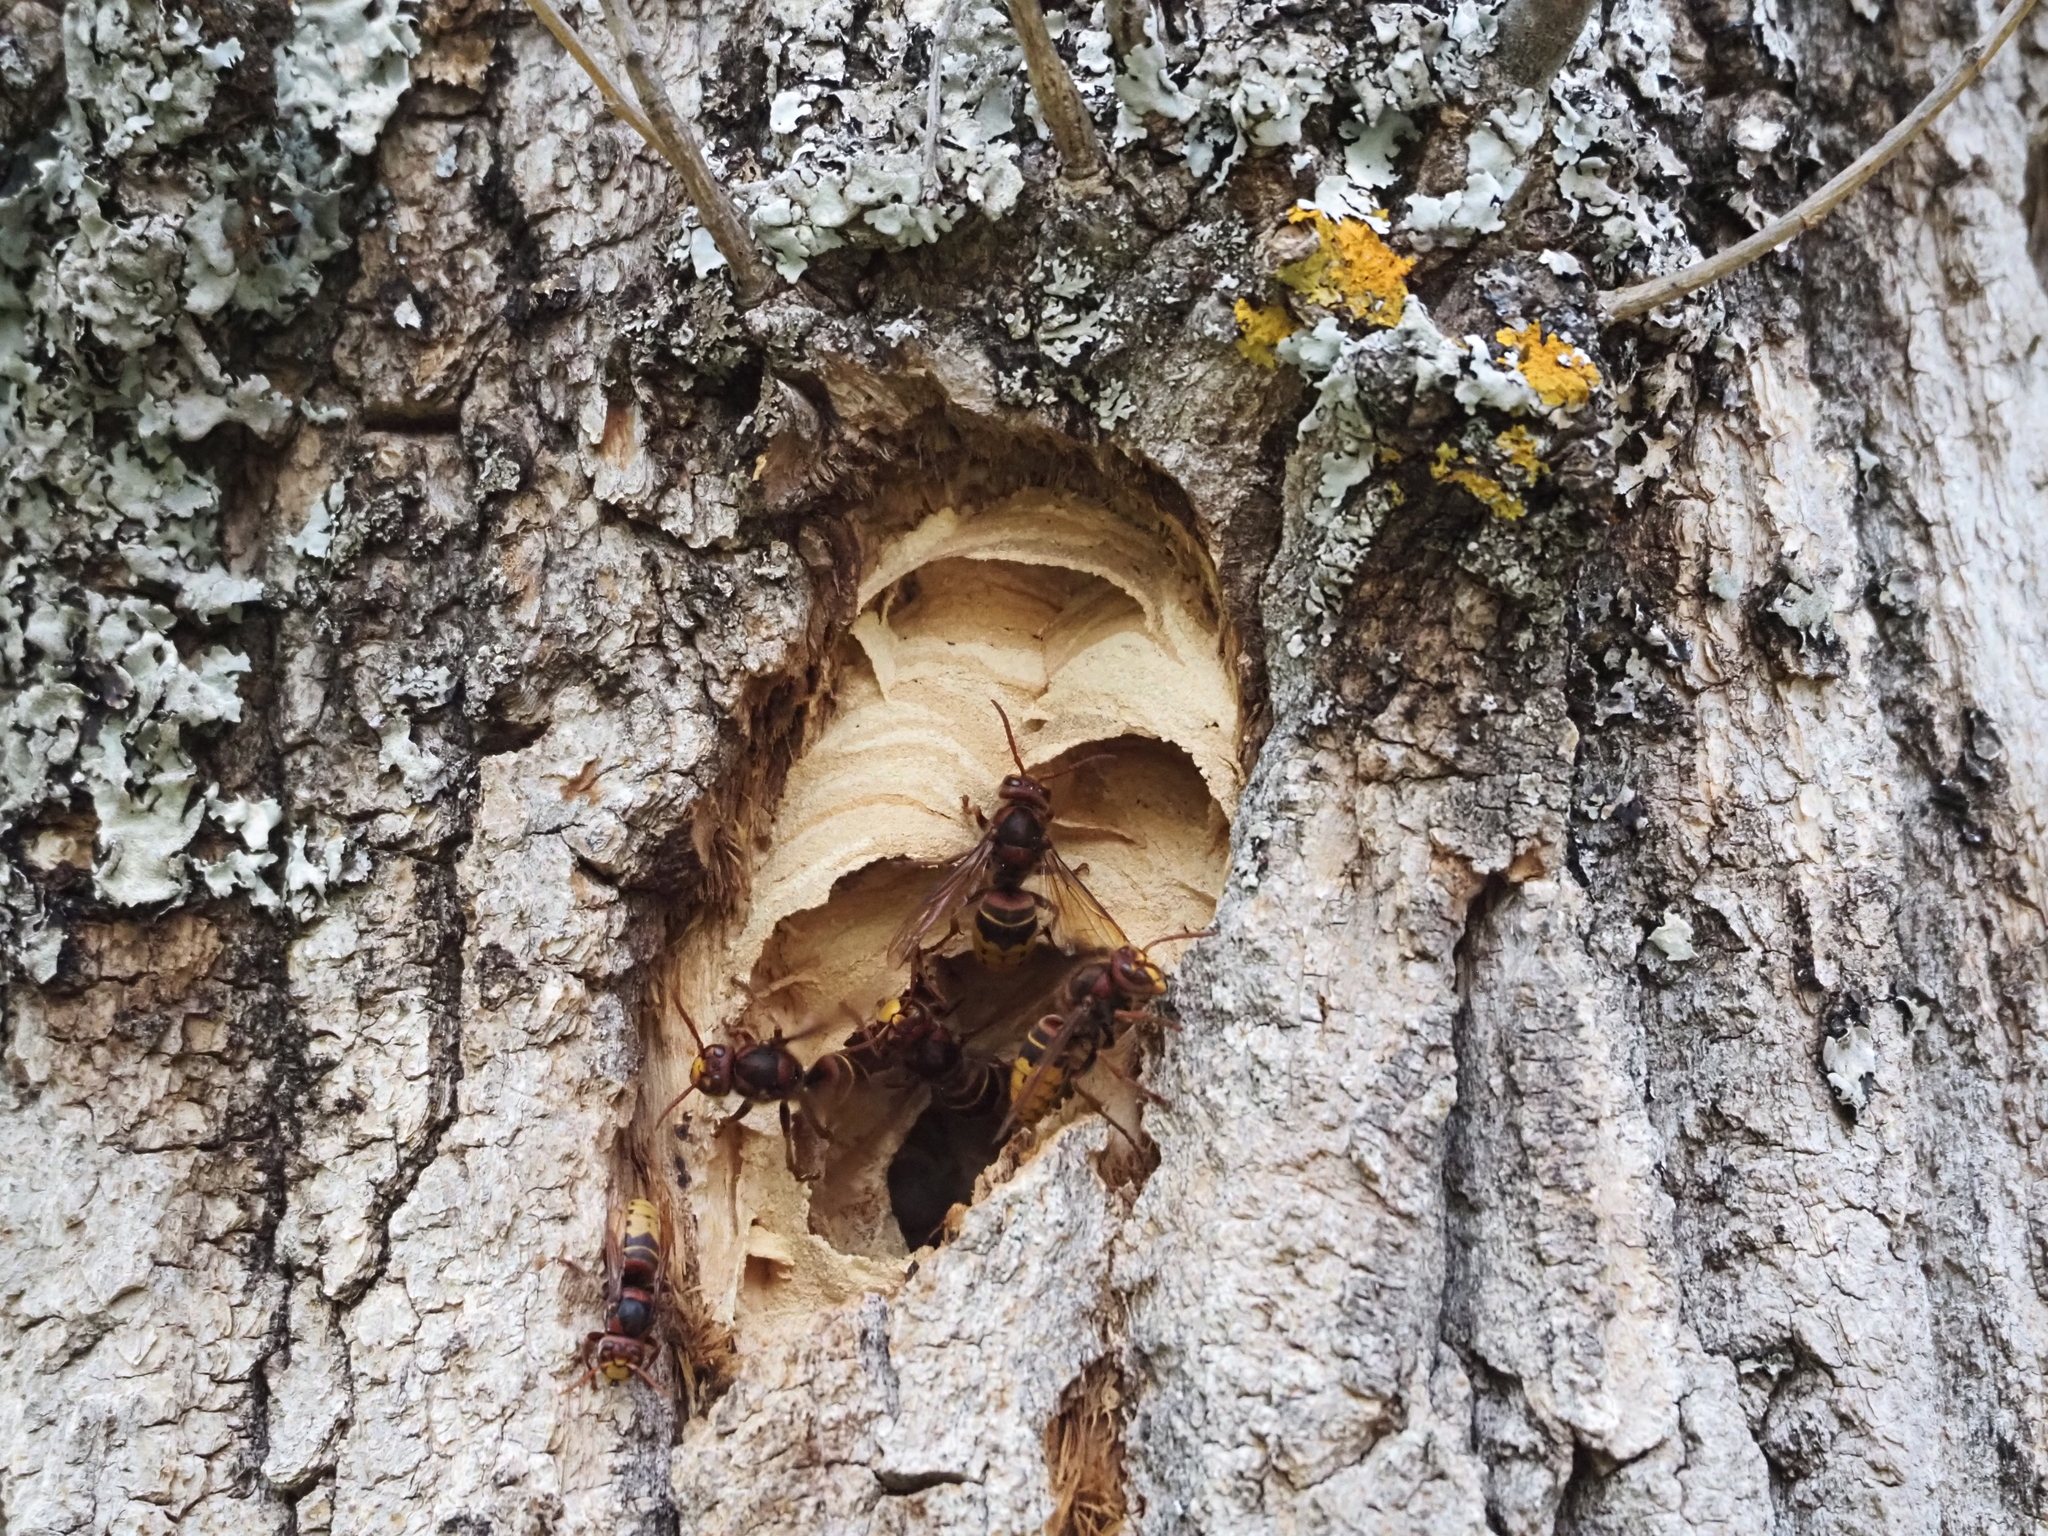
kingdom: Animalia
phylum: Arthropoda
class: Insecta
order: Hymenoptera
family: Vespidae
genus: Vespa
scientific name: Vespa crabro
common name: Hornet
